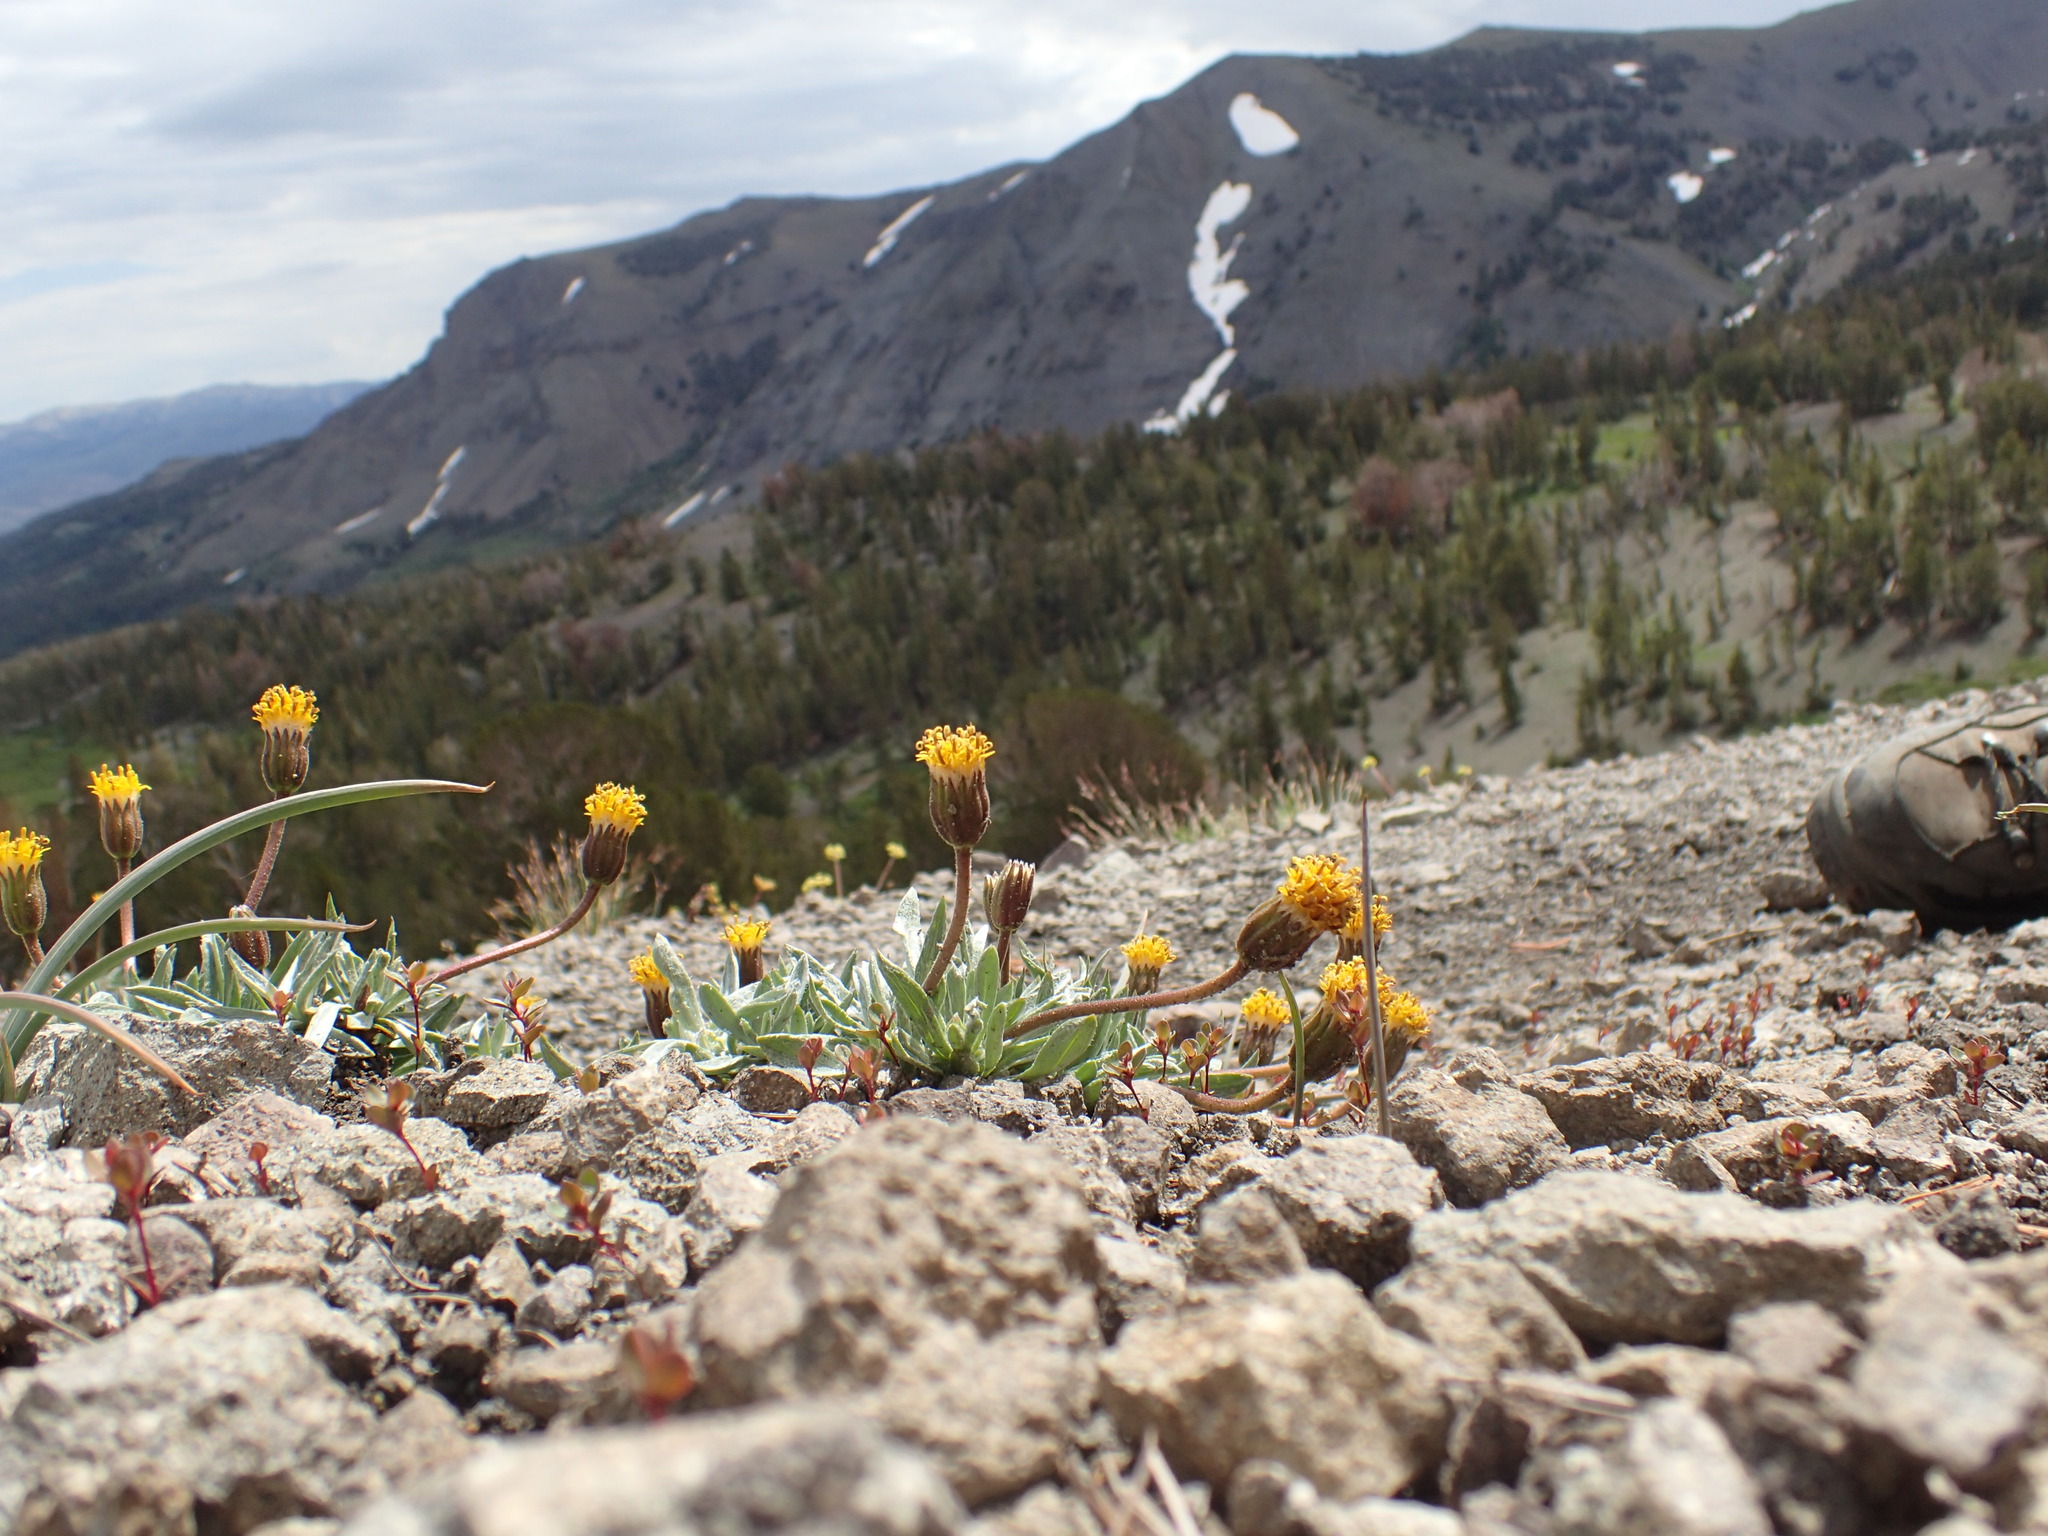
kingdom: Plantae
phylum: Tracheophyta
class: Magnoliopsida
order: Asterales
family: Asteraceae
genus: Raillardella
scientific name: Raillardella argentea
